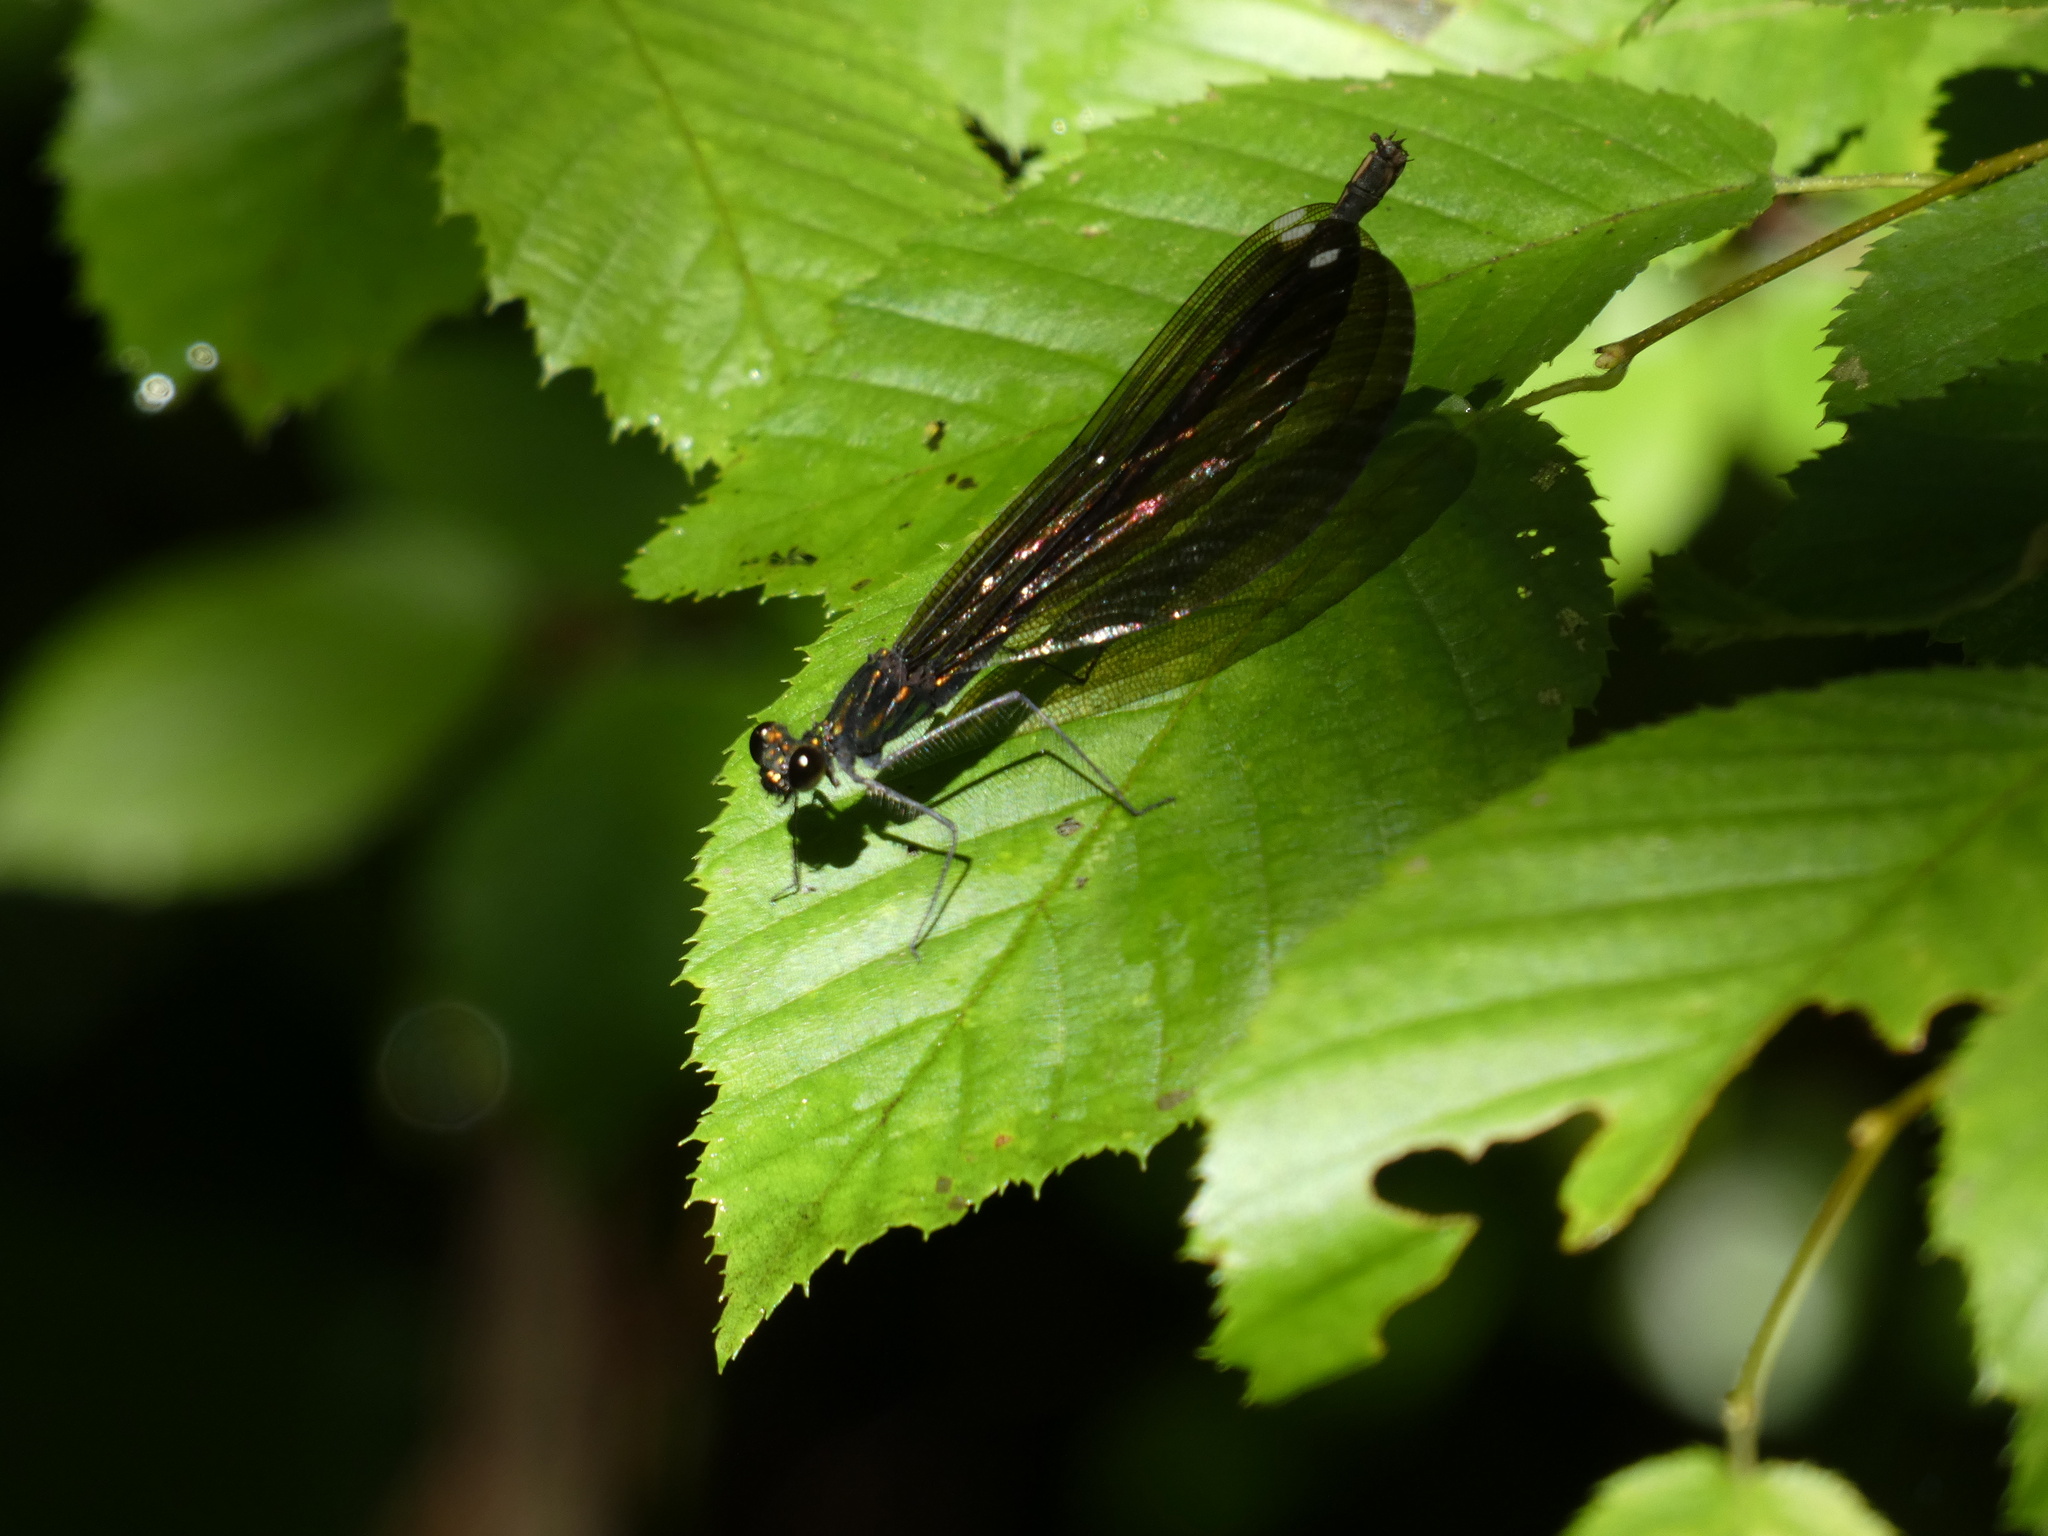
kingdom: Animalia
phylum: Arthropoda
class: Insecta
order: Odonata
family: Calopterygidae
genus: Calopteryx
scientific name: Calopteryx maculata
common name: Ebony jewelwing
